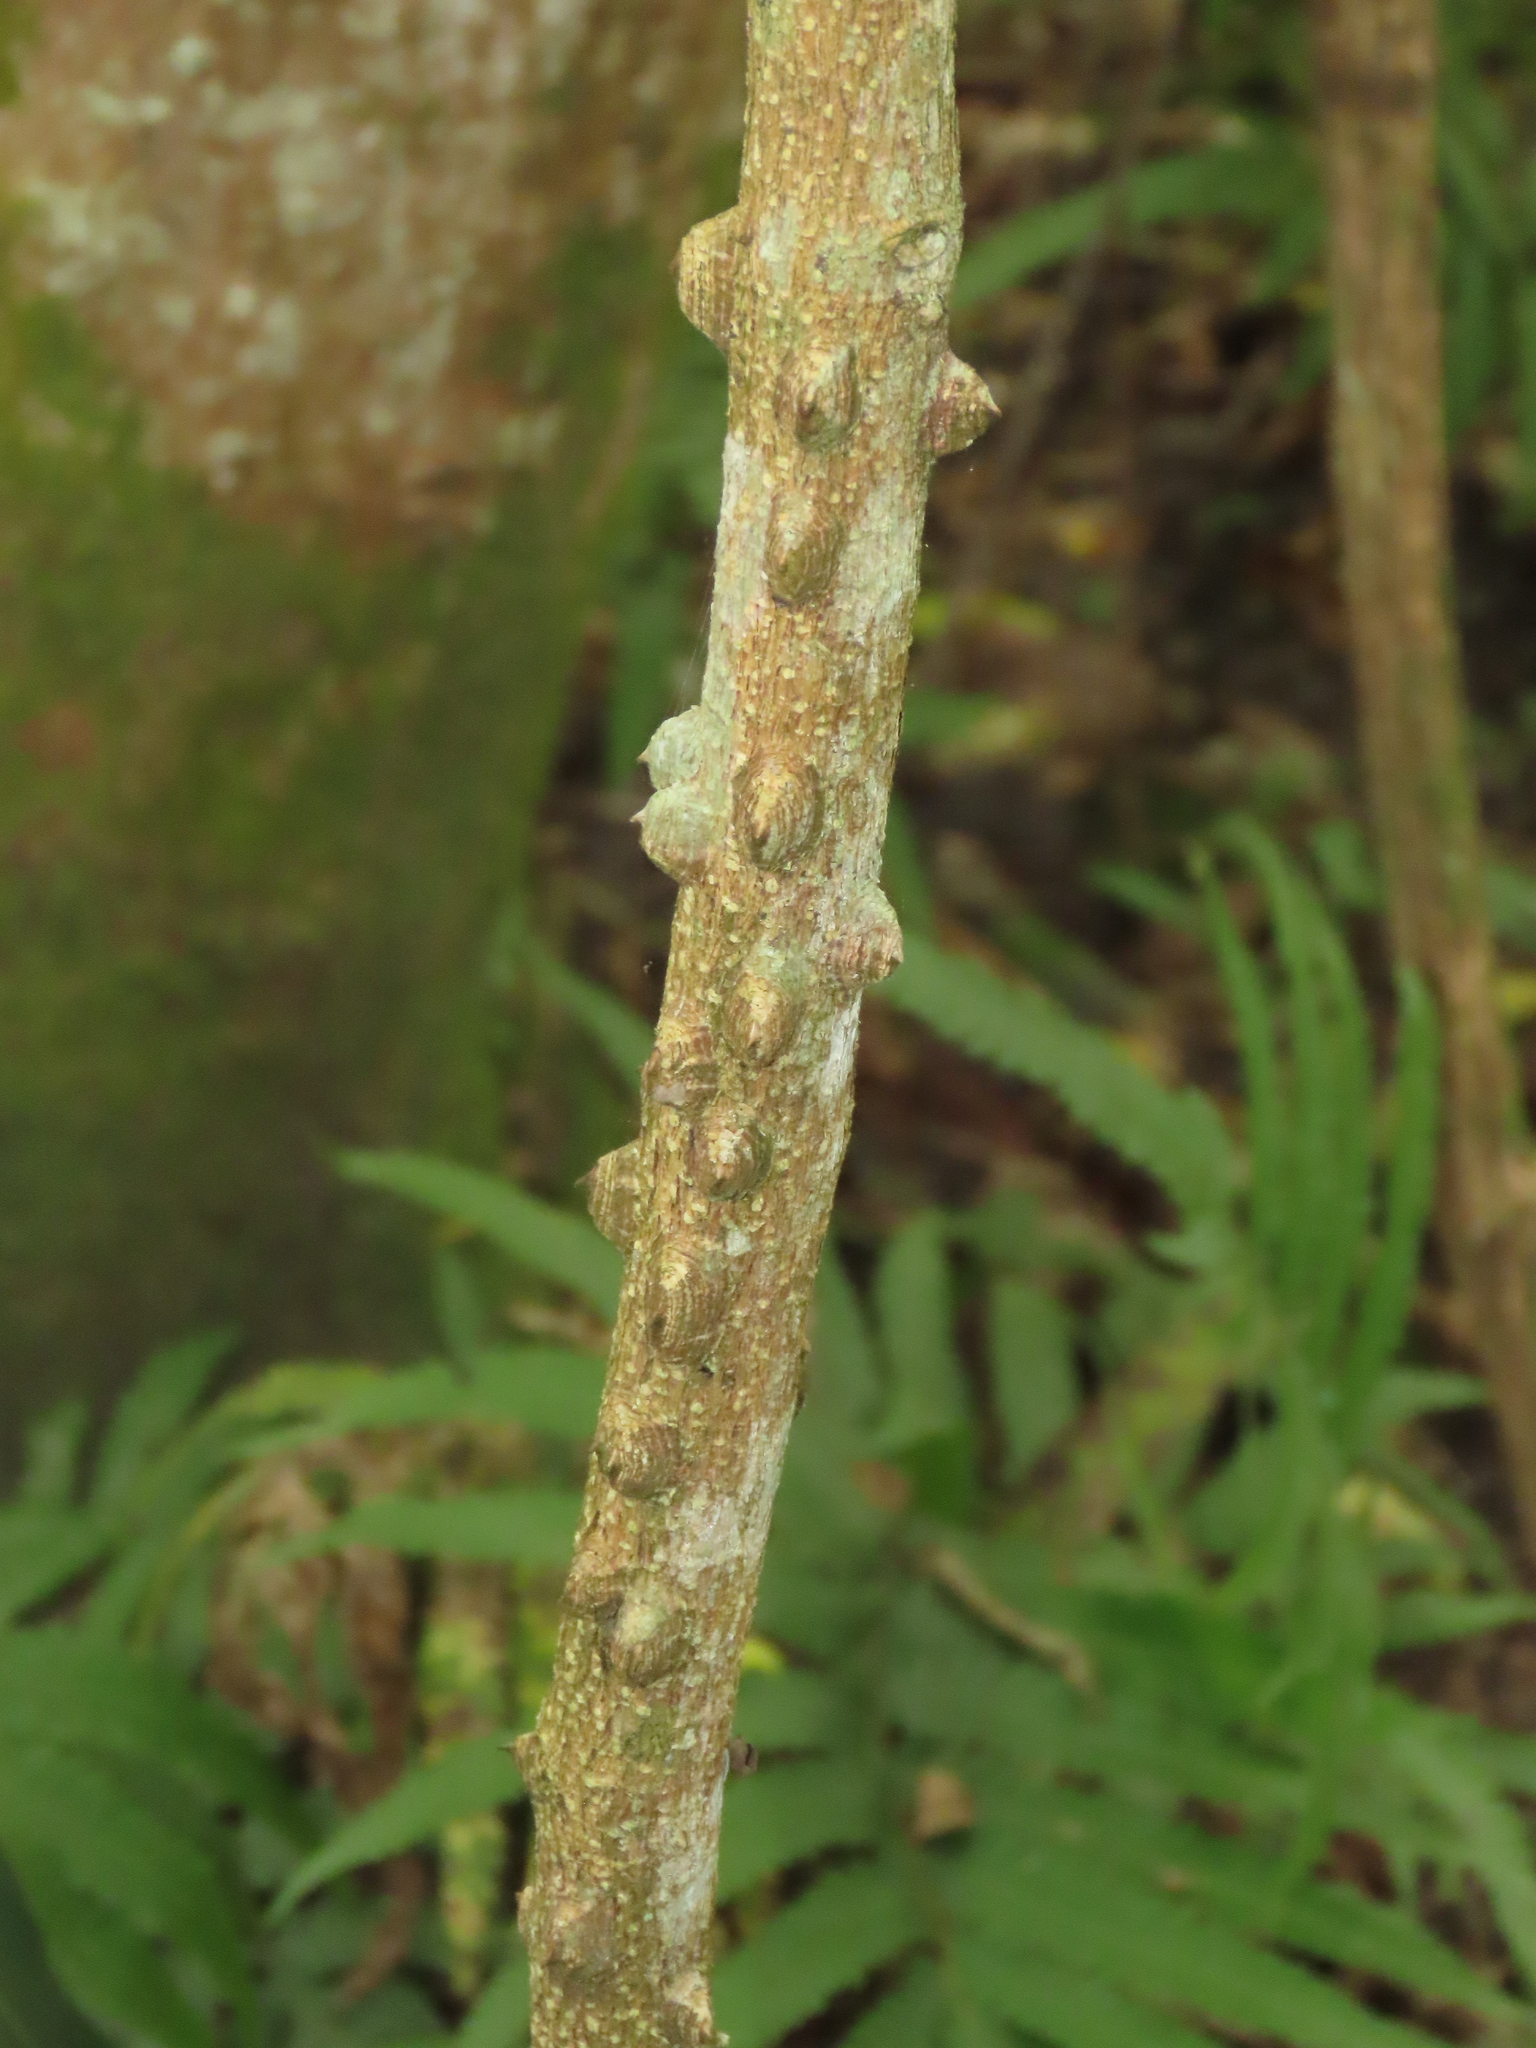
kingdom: Plantae
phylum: Tracheophyta
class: Magnoliopsida
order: Sapindales
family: Rutaceae
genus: Zanthoxylum
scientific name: Zanthoxylum asiaticum
